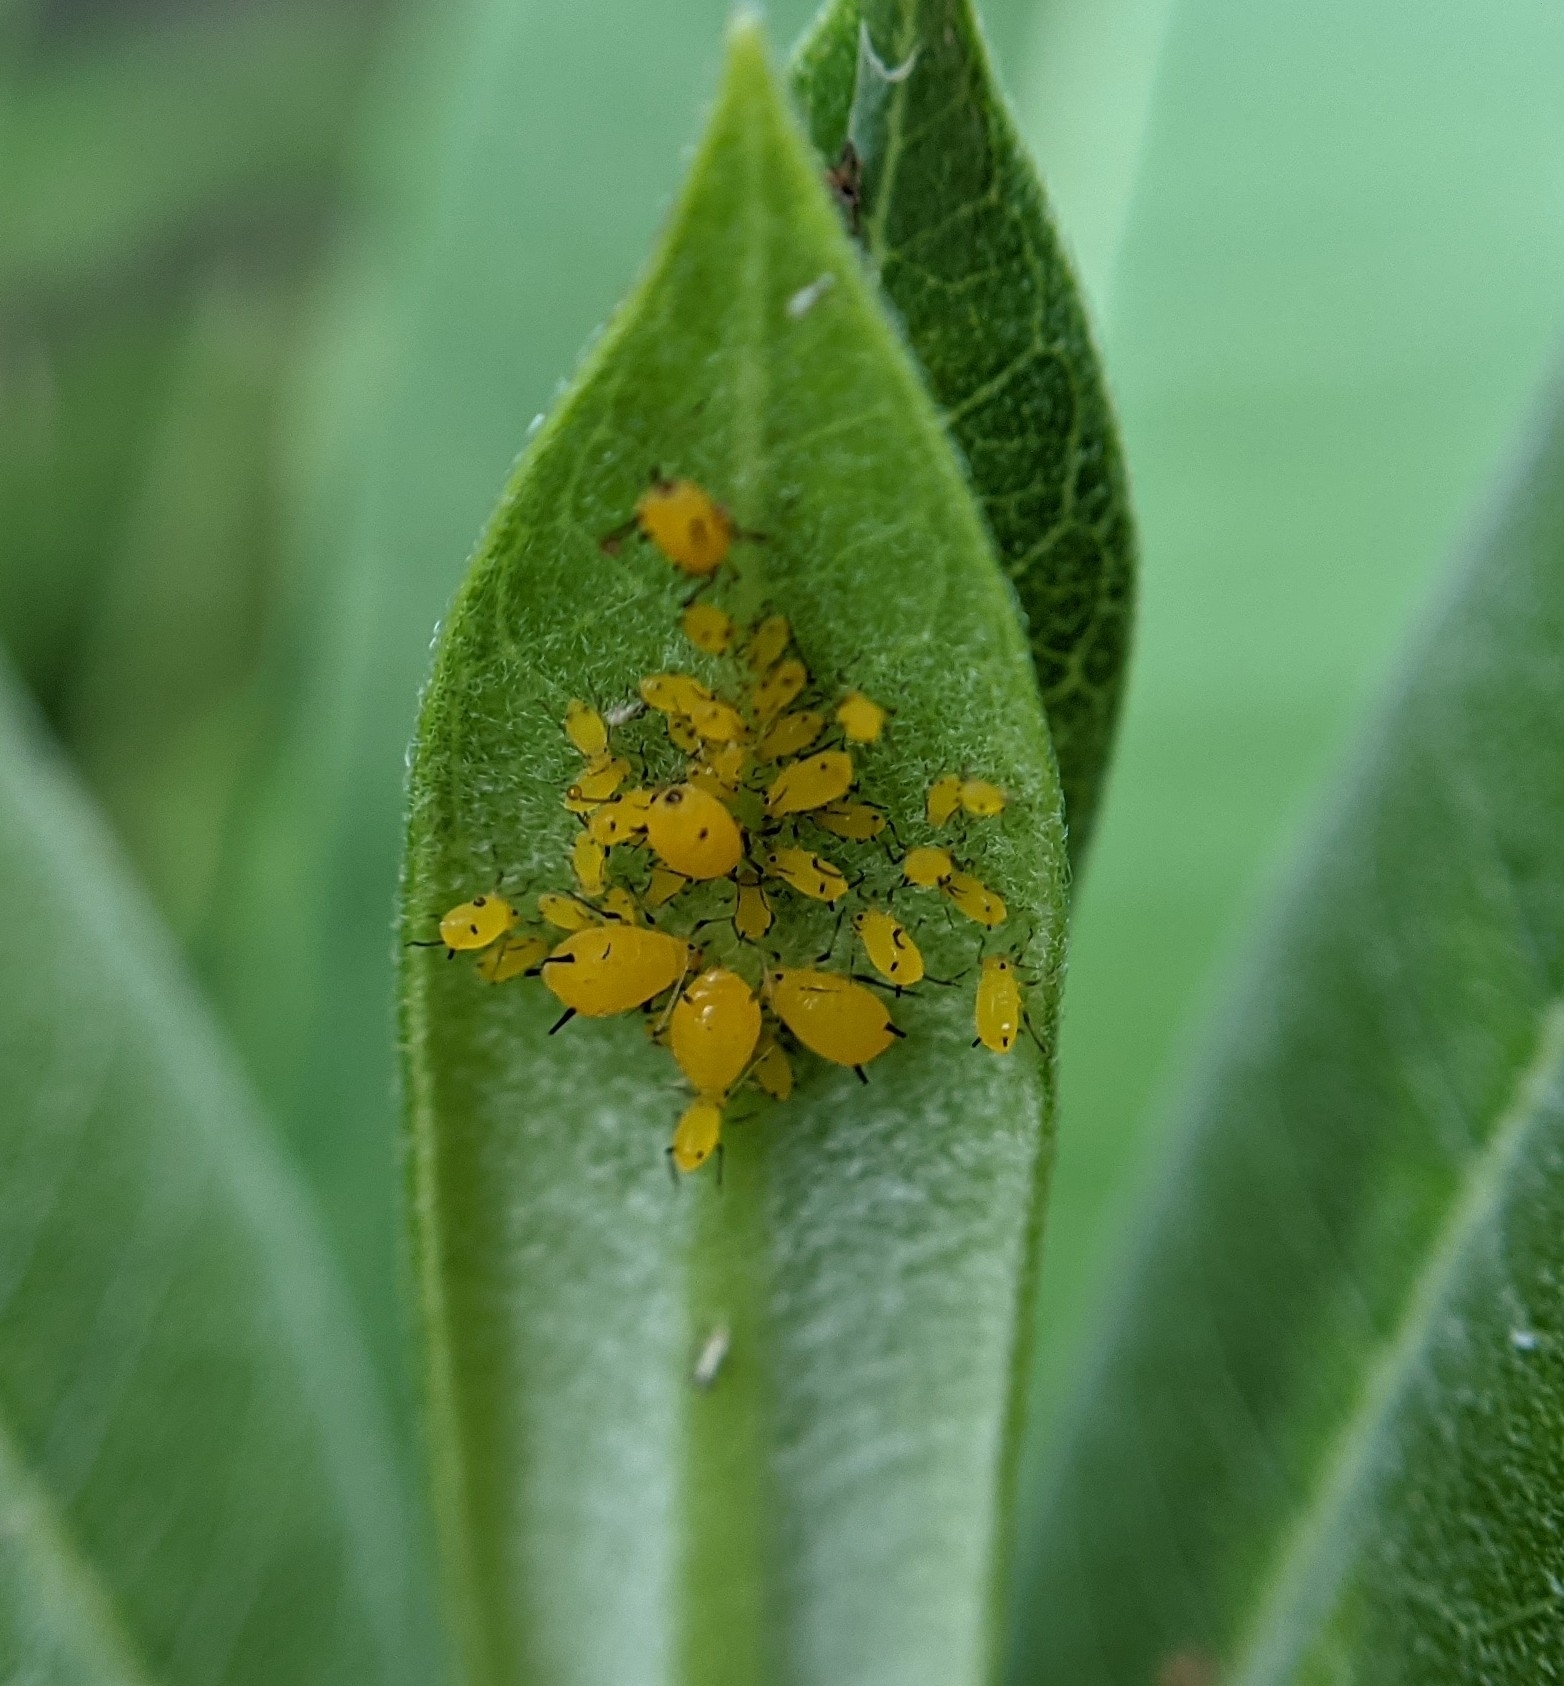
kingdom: Animalia
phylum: Arthropoda
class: Insecta
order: Hemiptera
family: Aphididae
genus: Aphis
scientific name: Aphis nerii
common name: Oleander aphid
